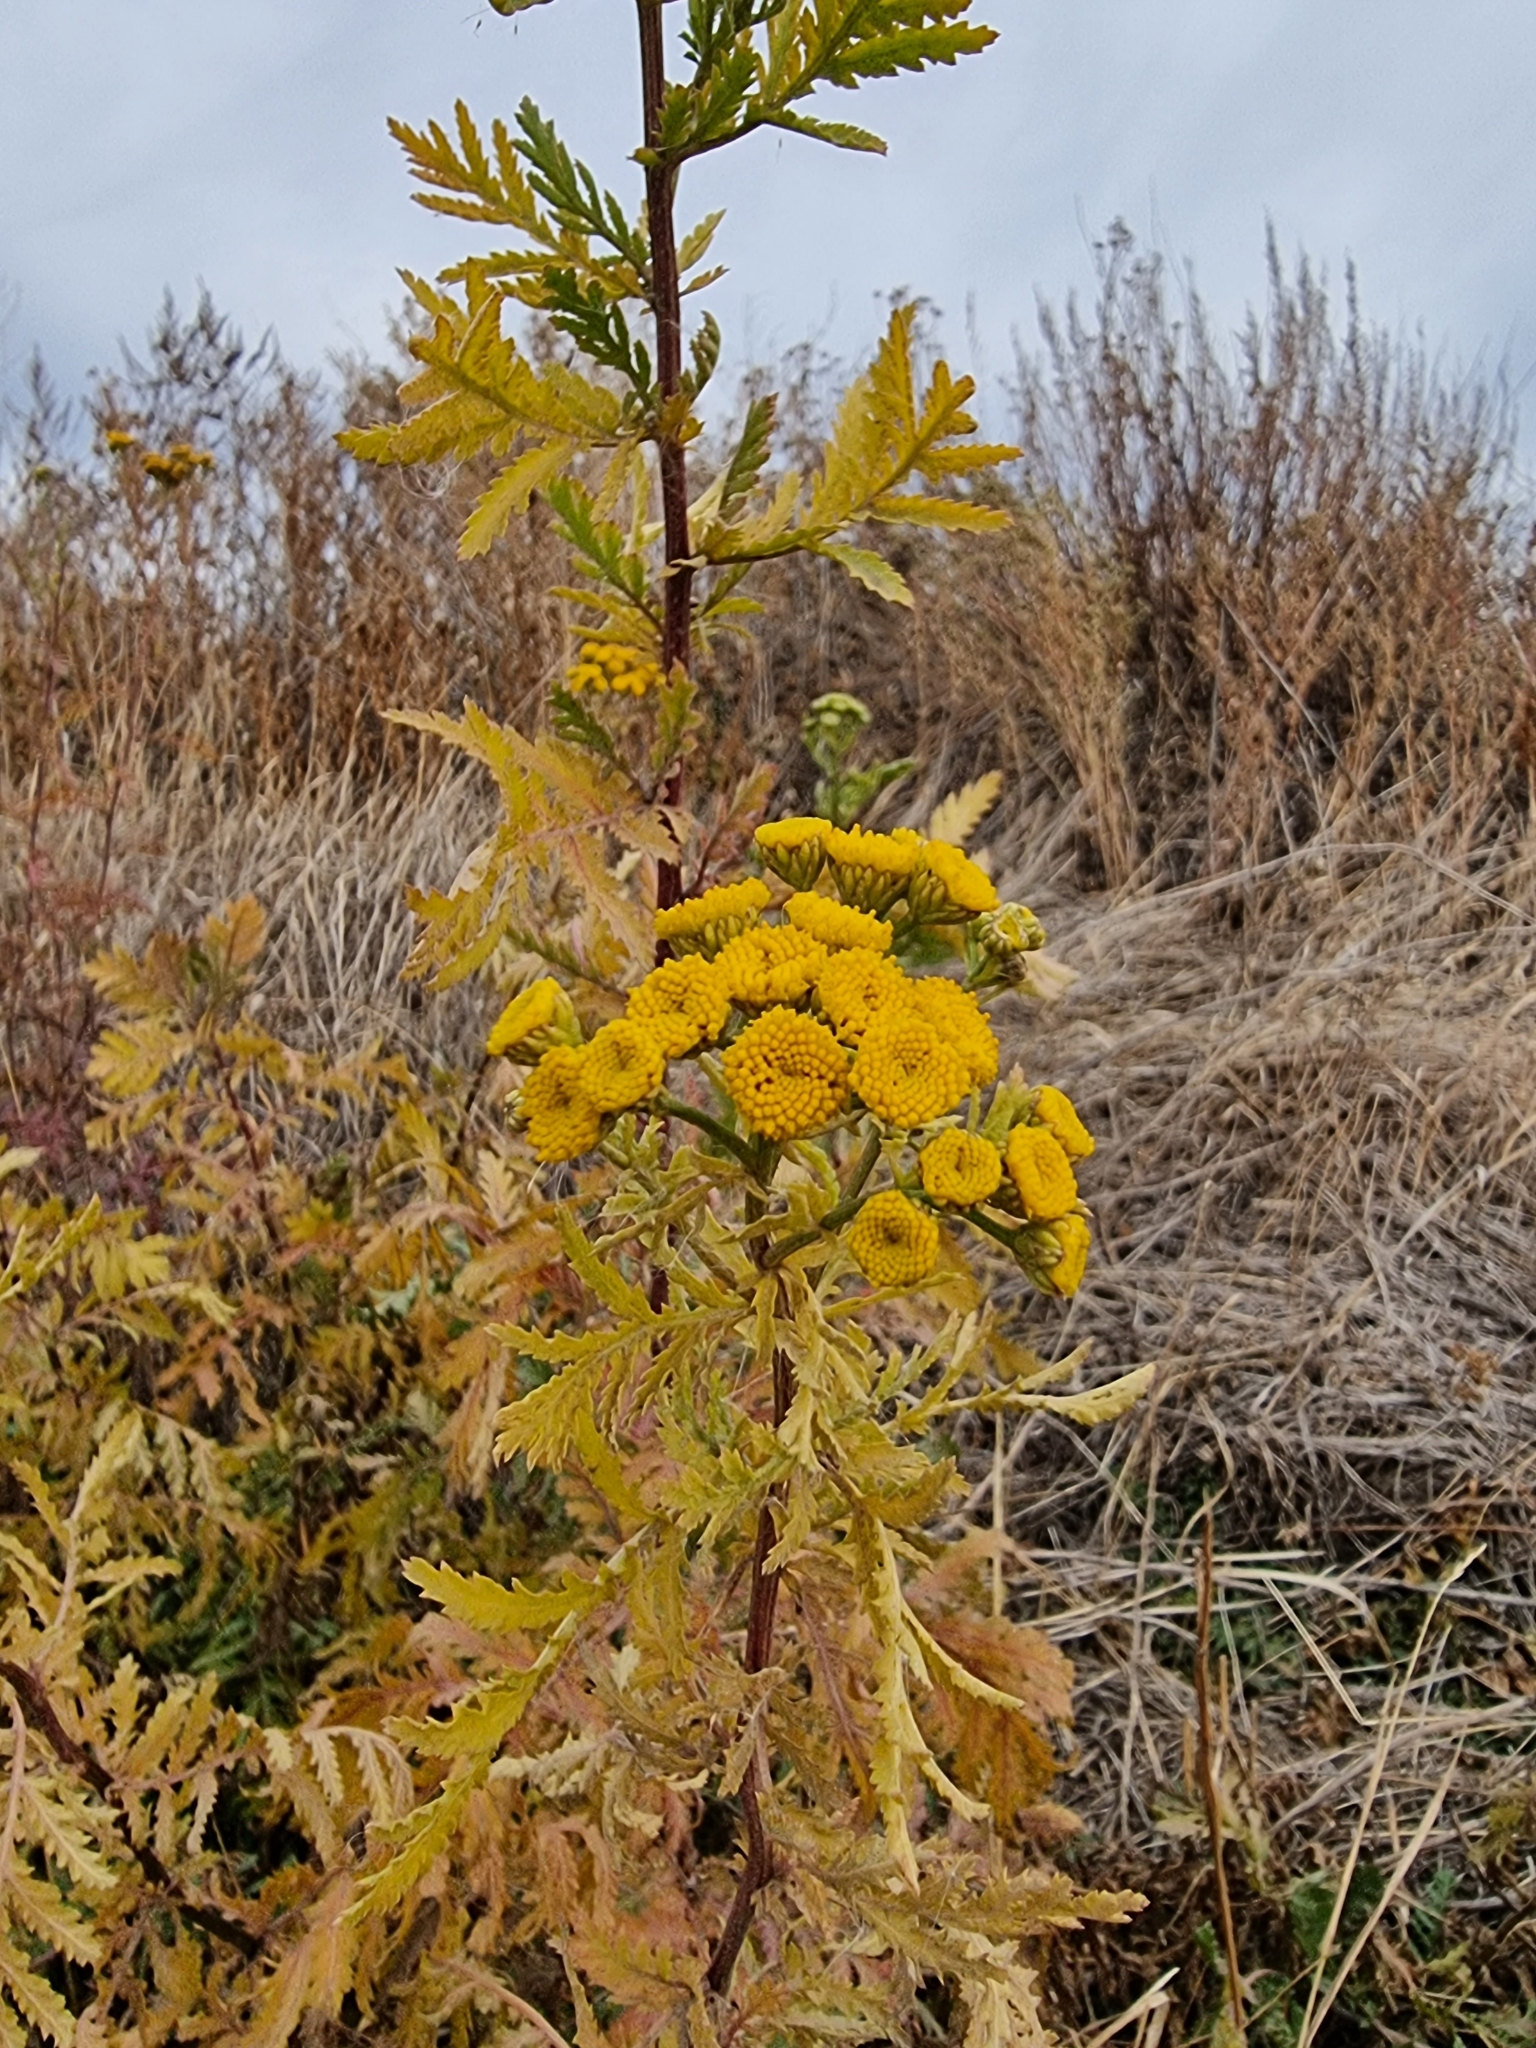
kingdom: Plantae
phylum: Tracheophyta
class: Magnoliopsida
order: Asterales
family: Asteraceae
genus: Tanacetum
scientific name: Tanacetum vulgare
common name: Common tansy
